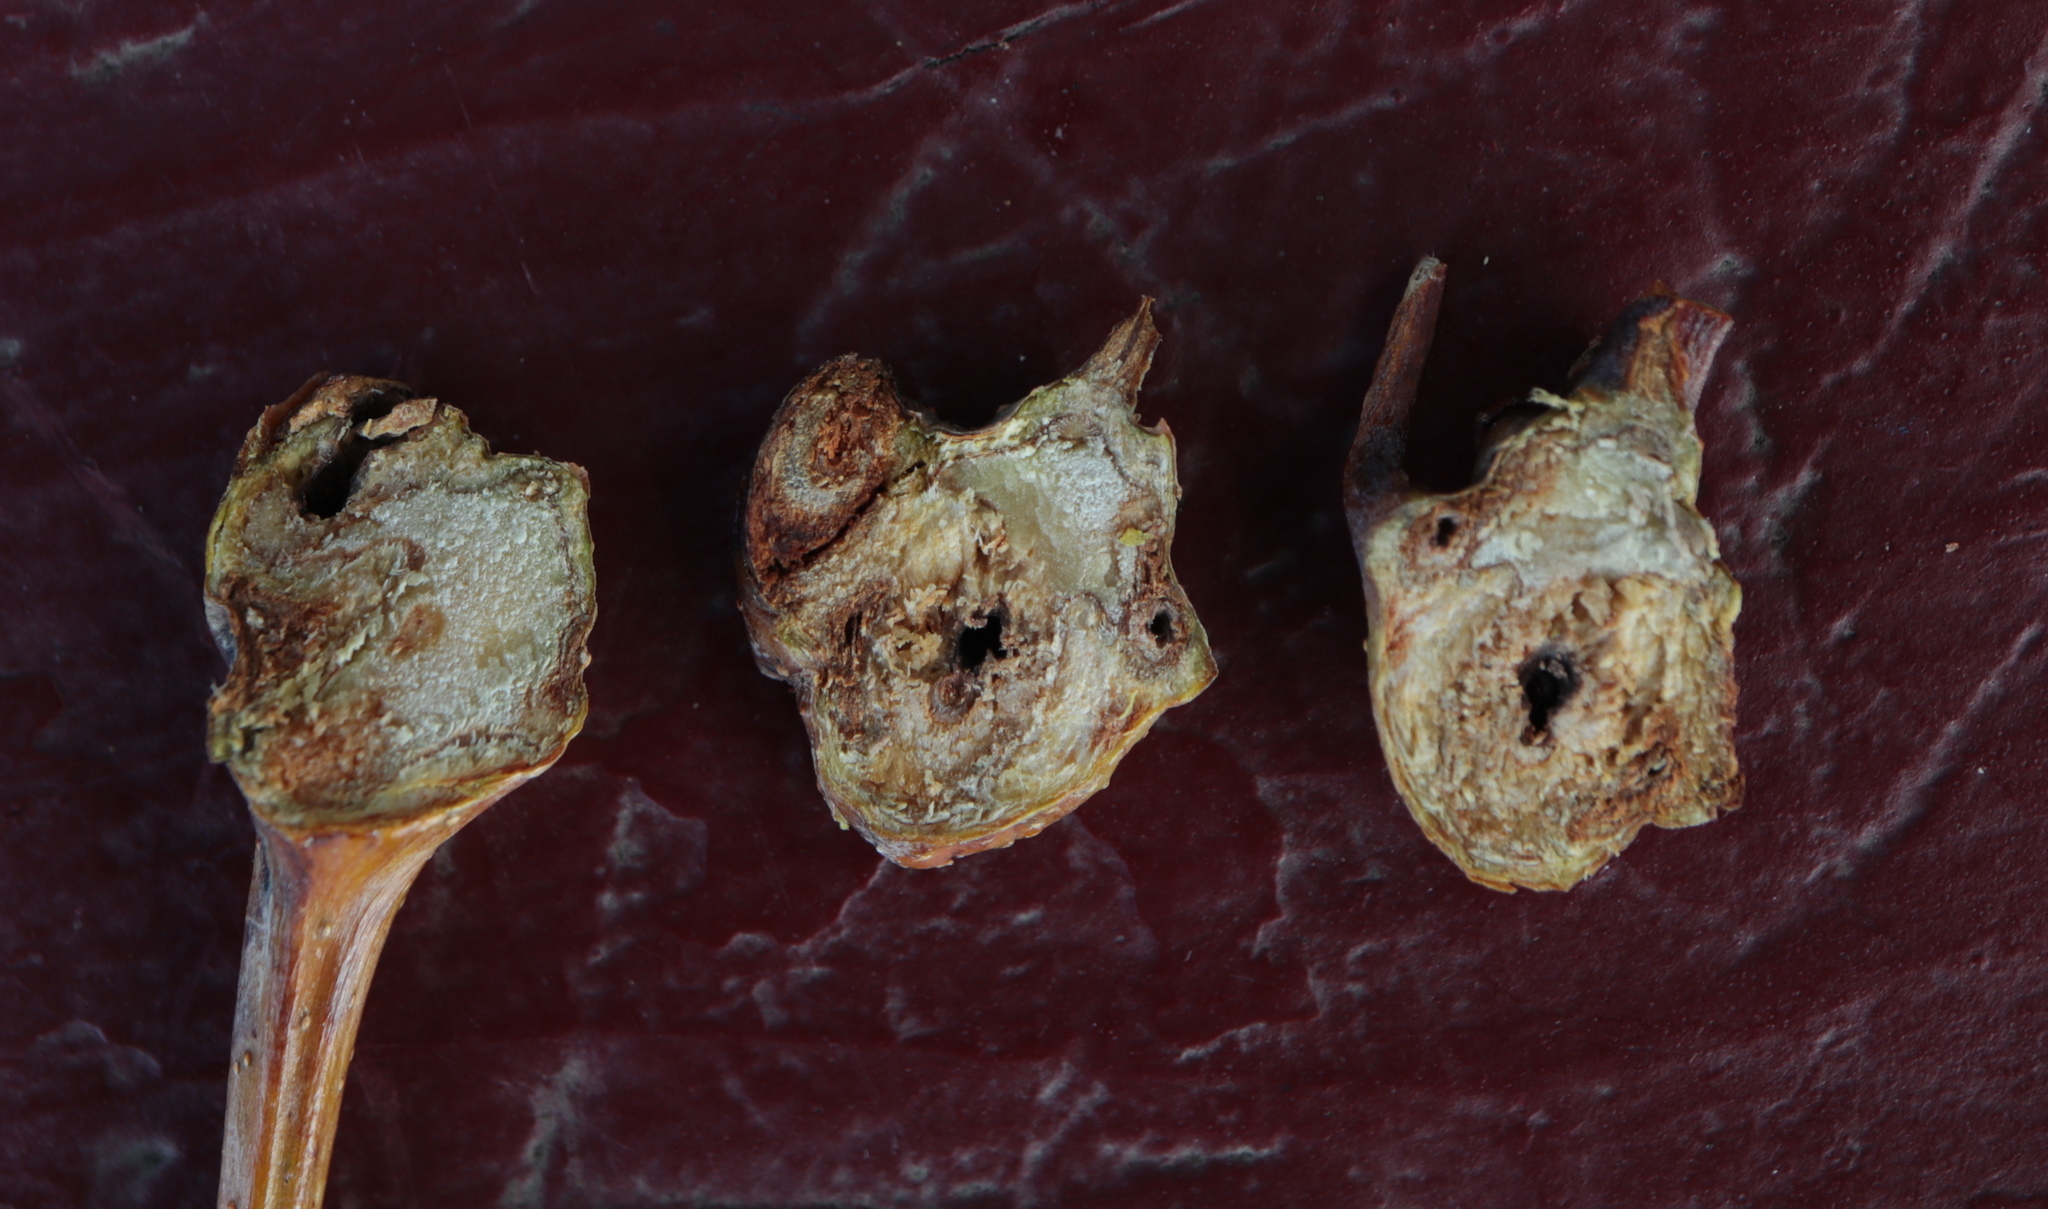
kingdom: Animalia
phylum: Arthropoda
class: Insecta
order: Hymenoptera
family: Cynipidae
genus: Callirhytis
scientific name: Callirhytis clavula
